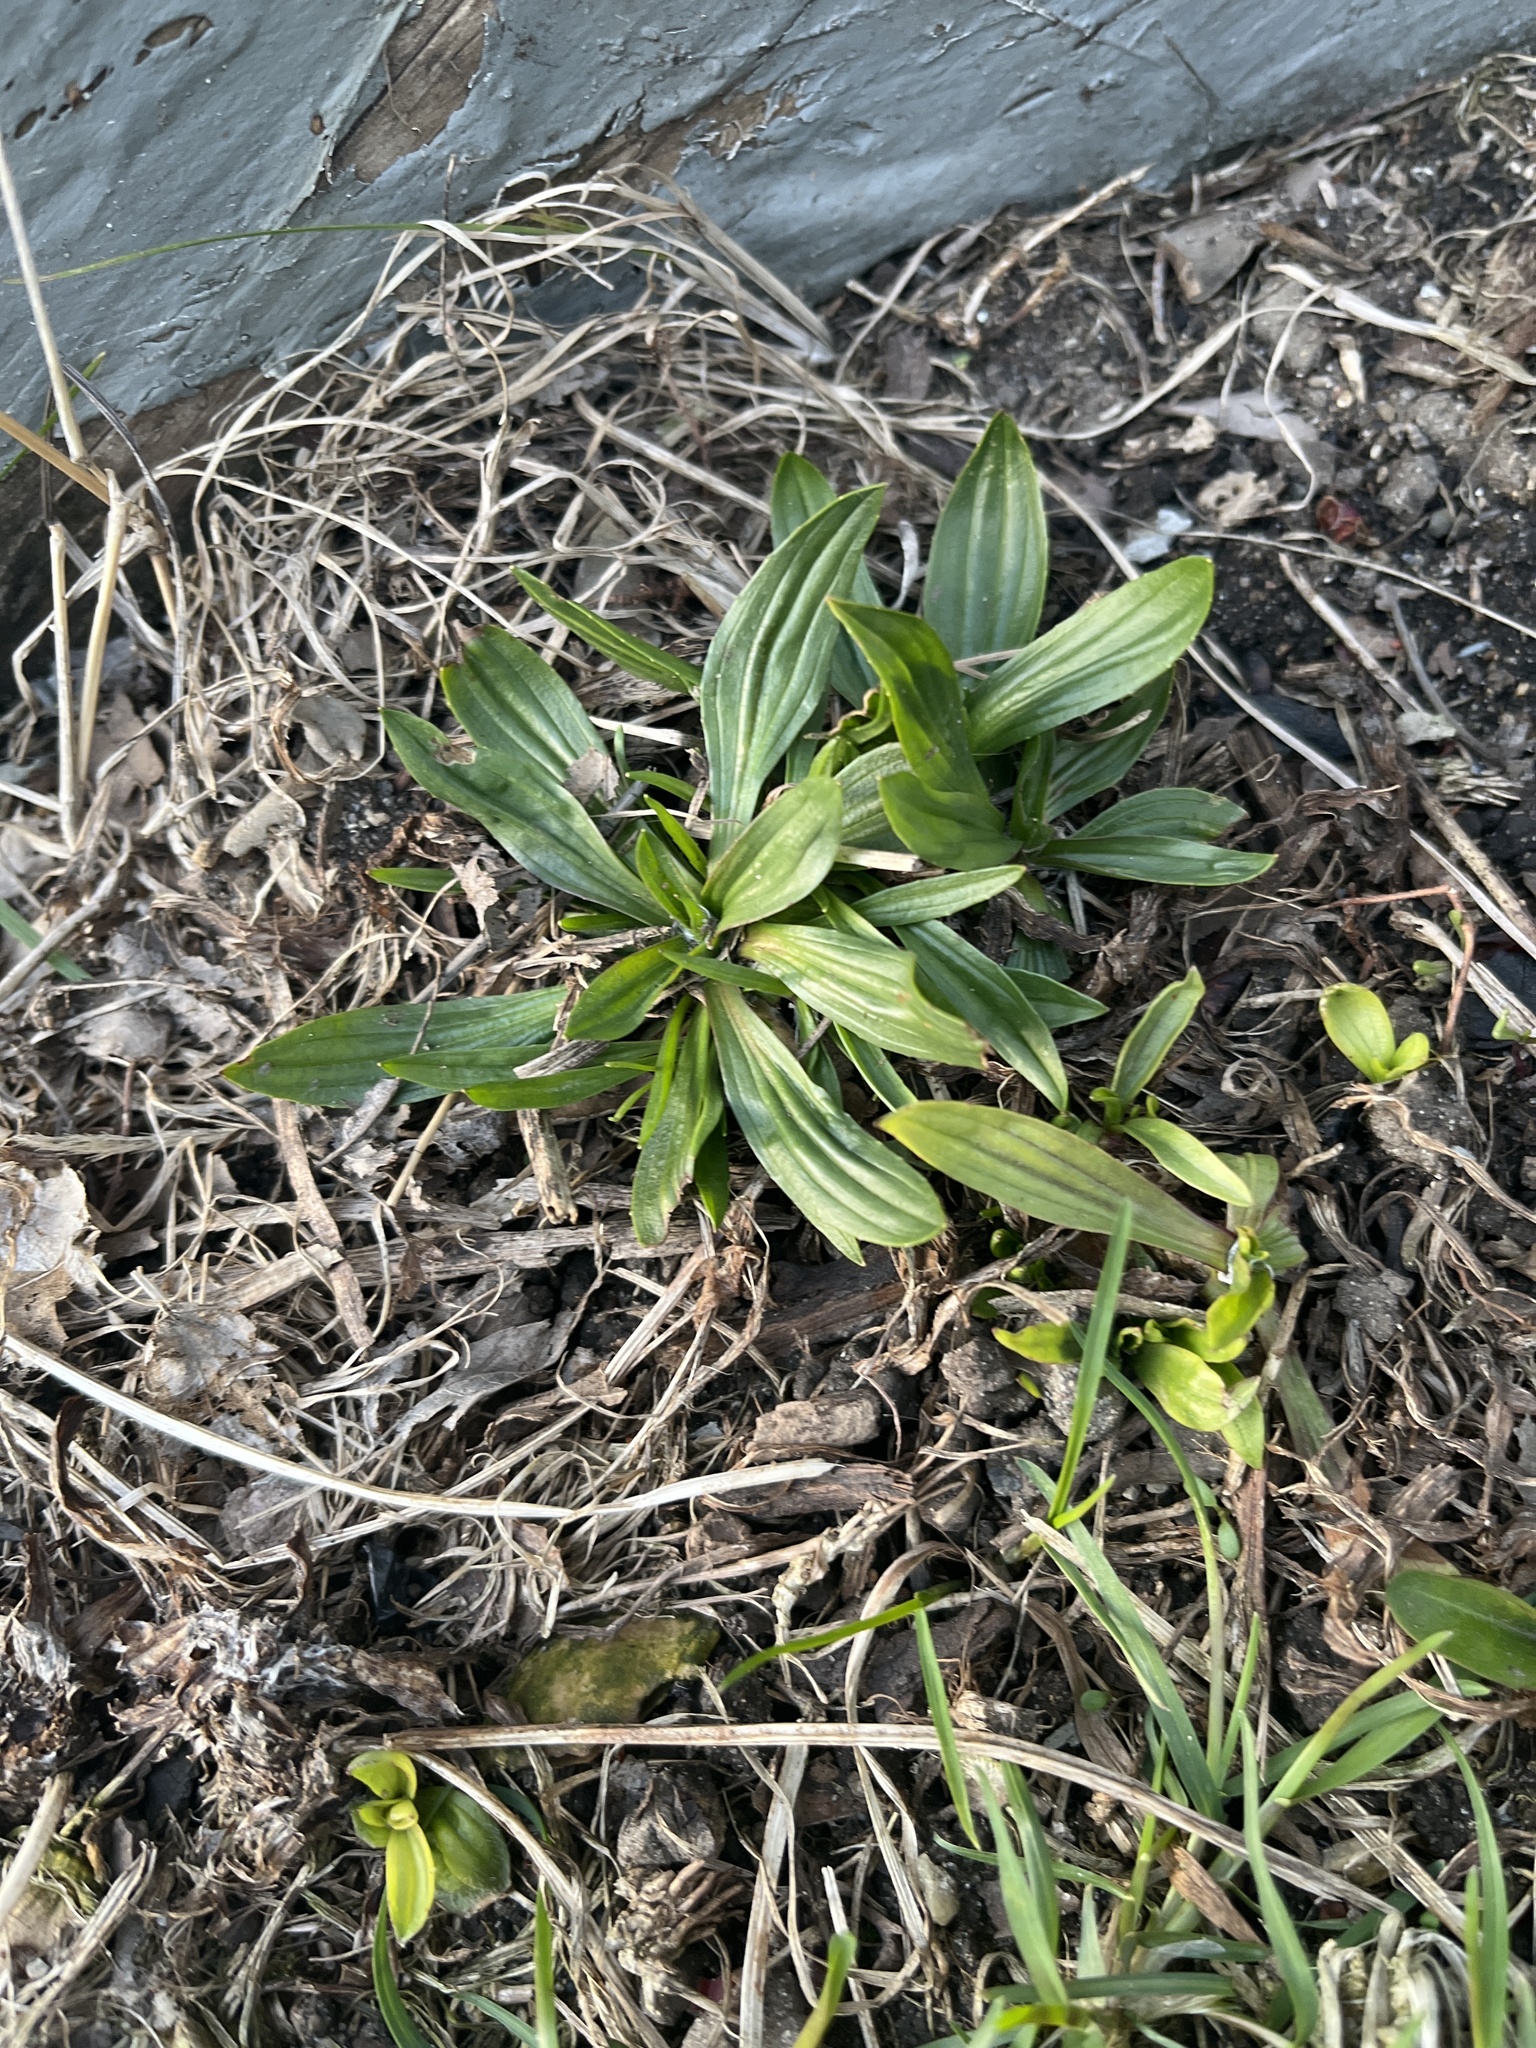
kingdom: Plantae
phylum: Tracheophyta
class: Magnoliopsida
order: Lamiales
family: Plantaginaceae
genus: Plantago
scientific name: Plantago lanceolata
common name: Ribwort plantain
